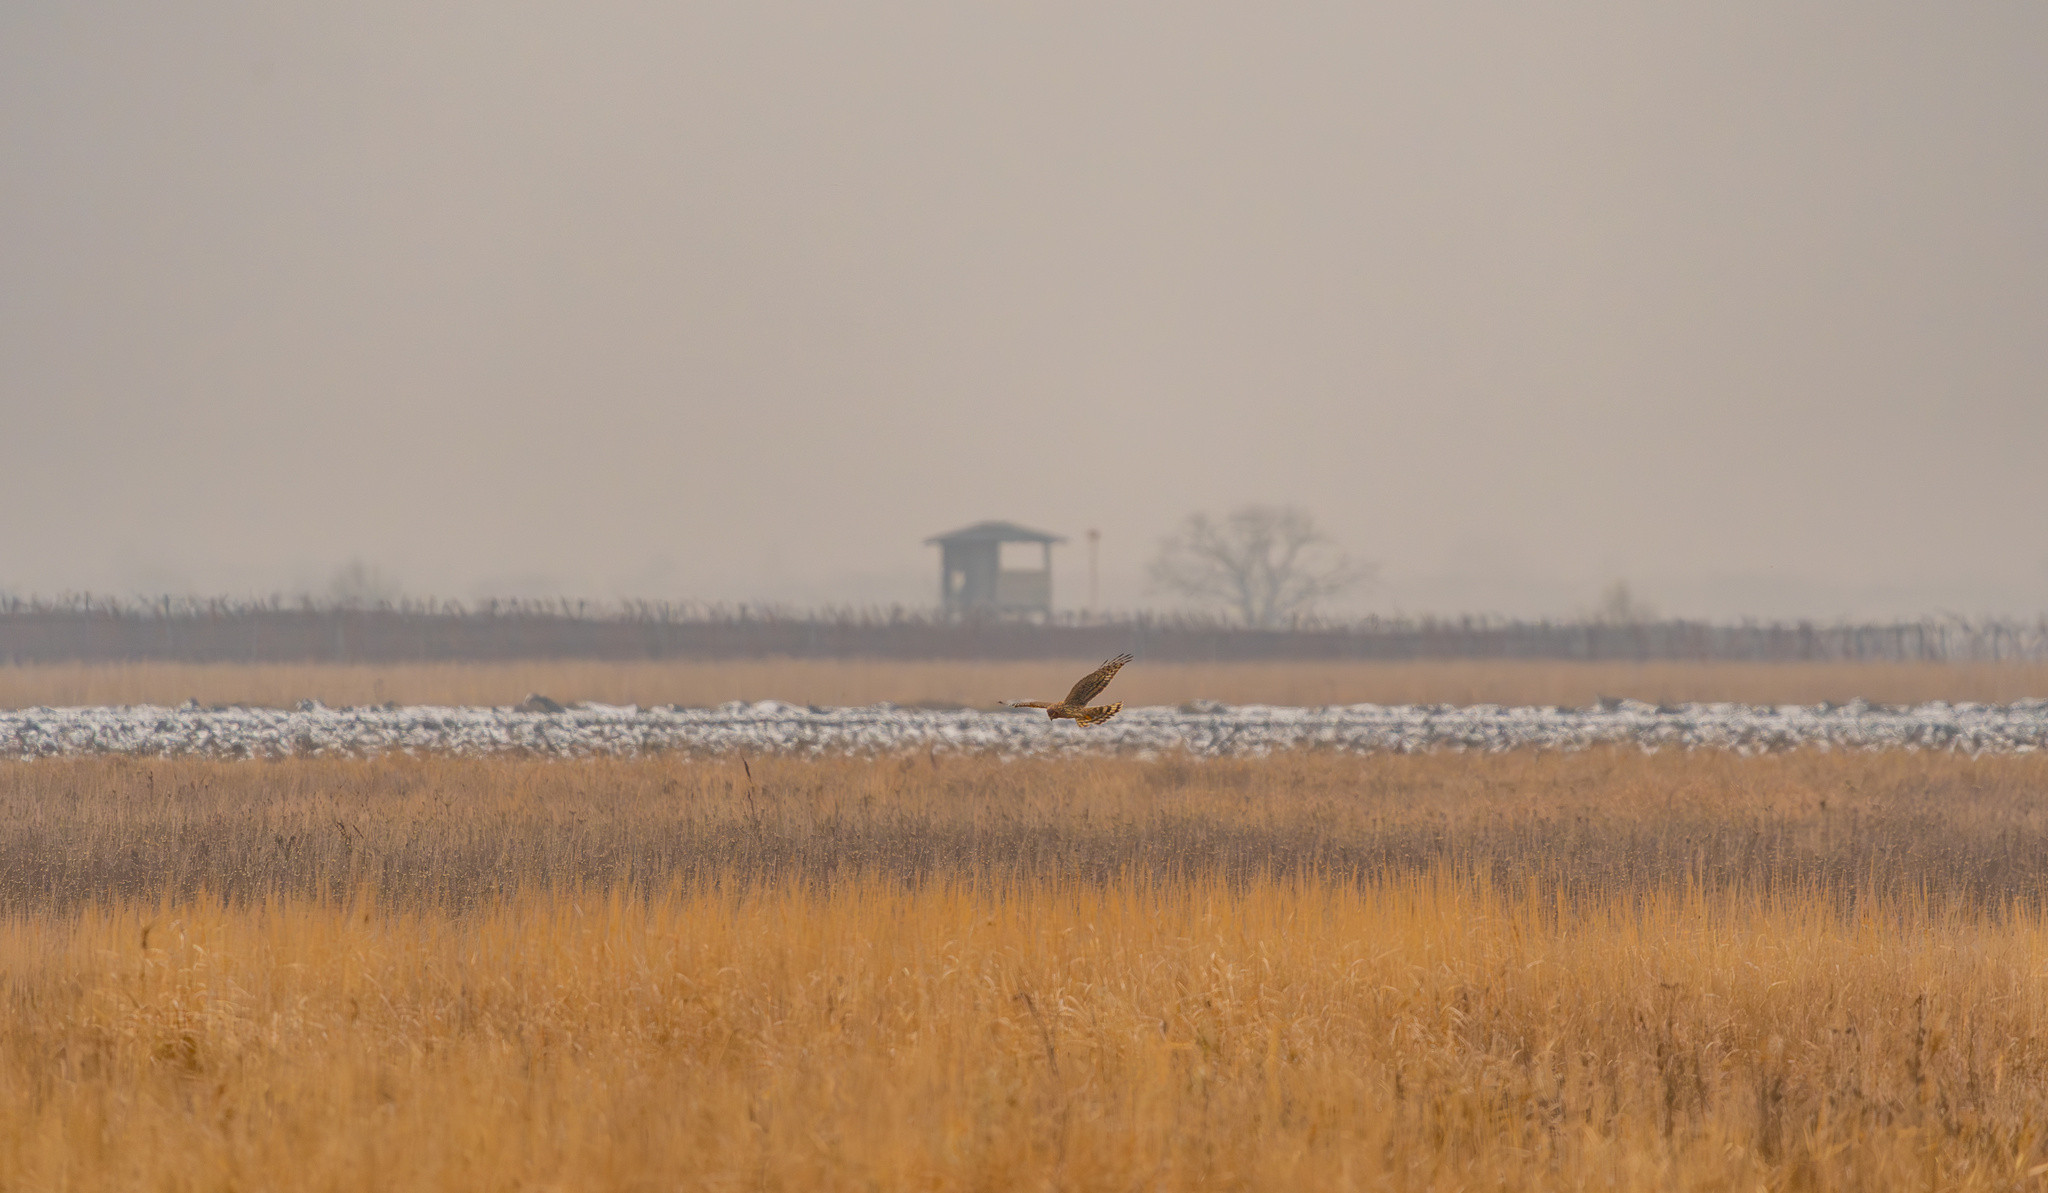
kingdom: Animalia
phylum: Chordata
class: Aves
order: Accipitriformes
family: Accipitridae
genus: Circus
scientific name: Circus cyaneus
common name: Hen harrier
